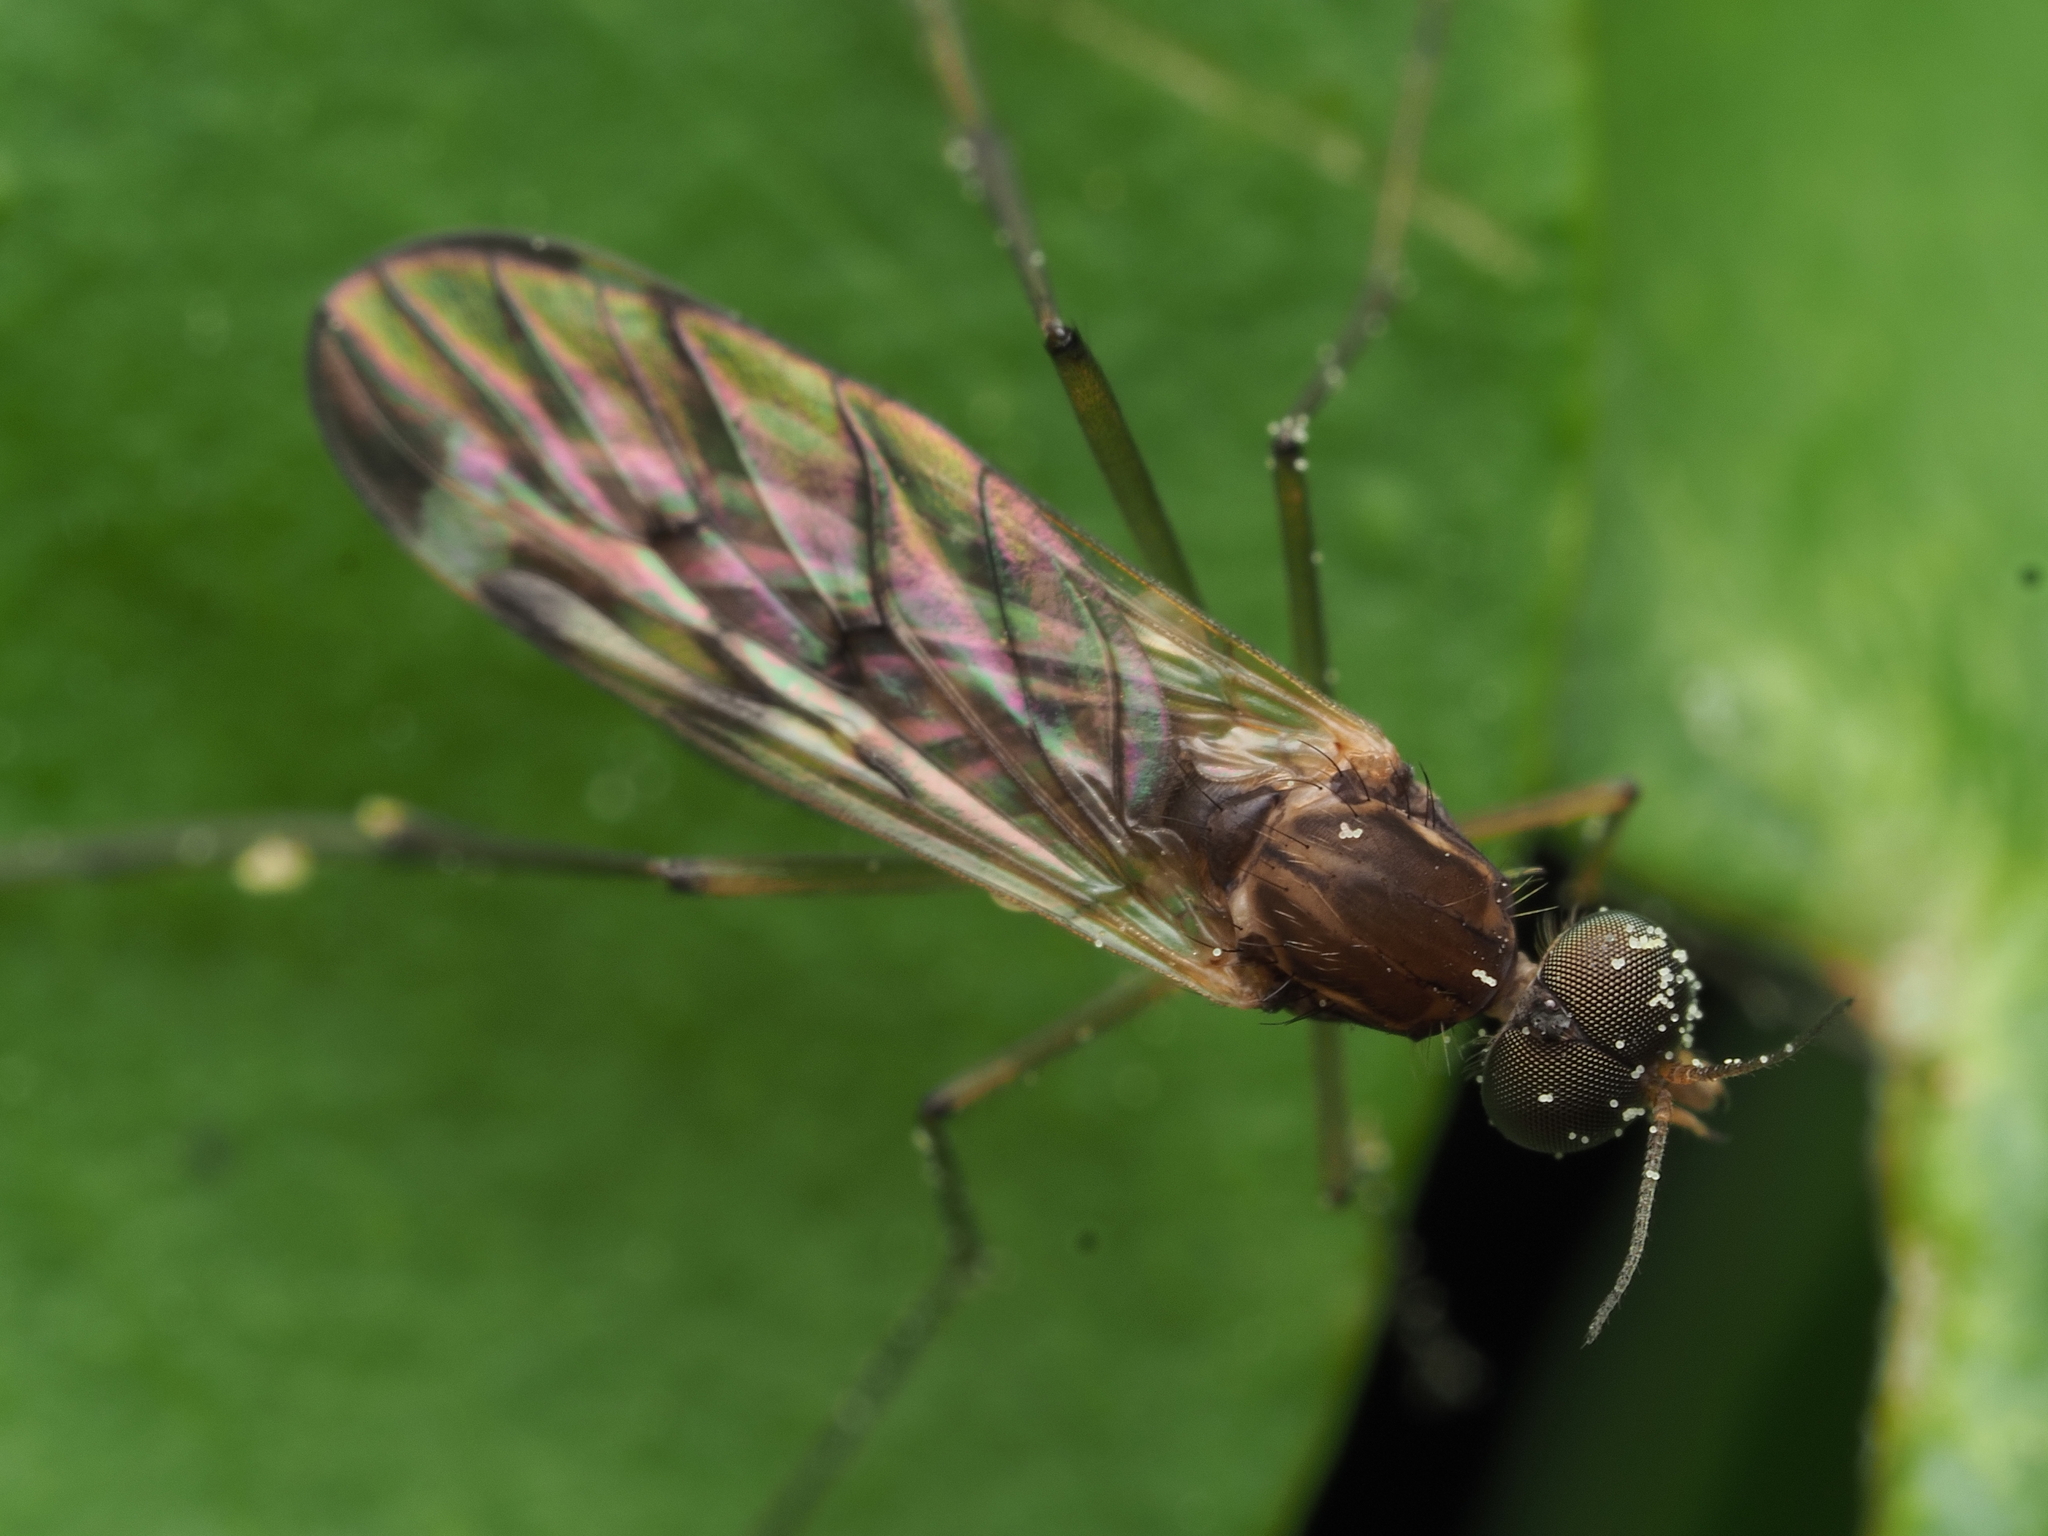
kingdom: Animalia
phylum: Arthropoda
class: Insecta
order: Diptera
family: Anisopodidae
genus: Sylvicola
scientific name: Sylvicola notatus
